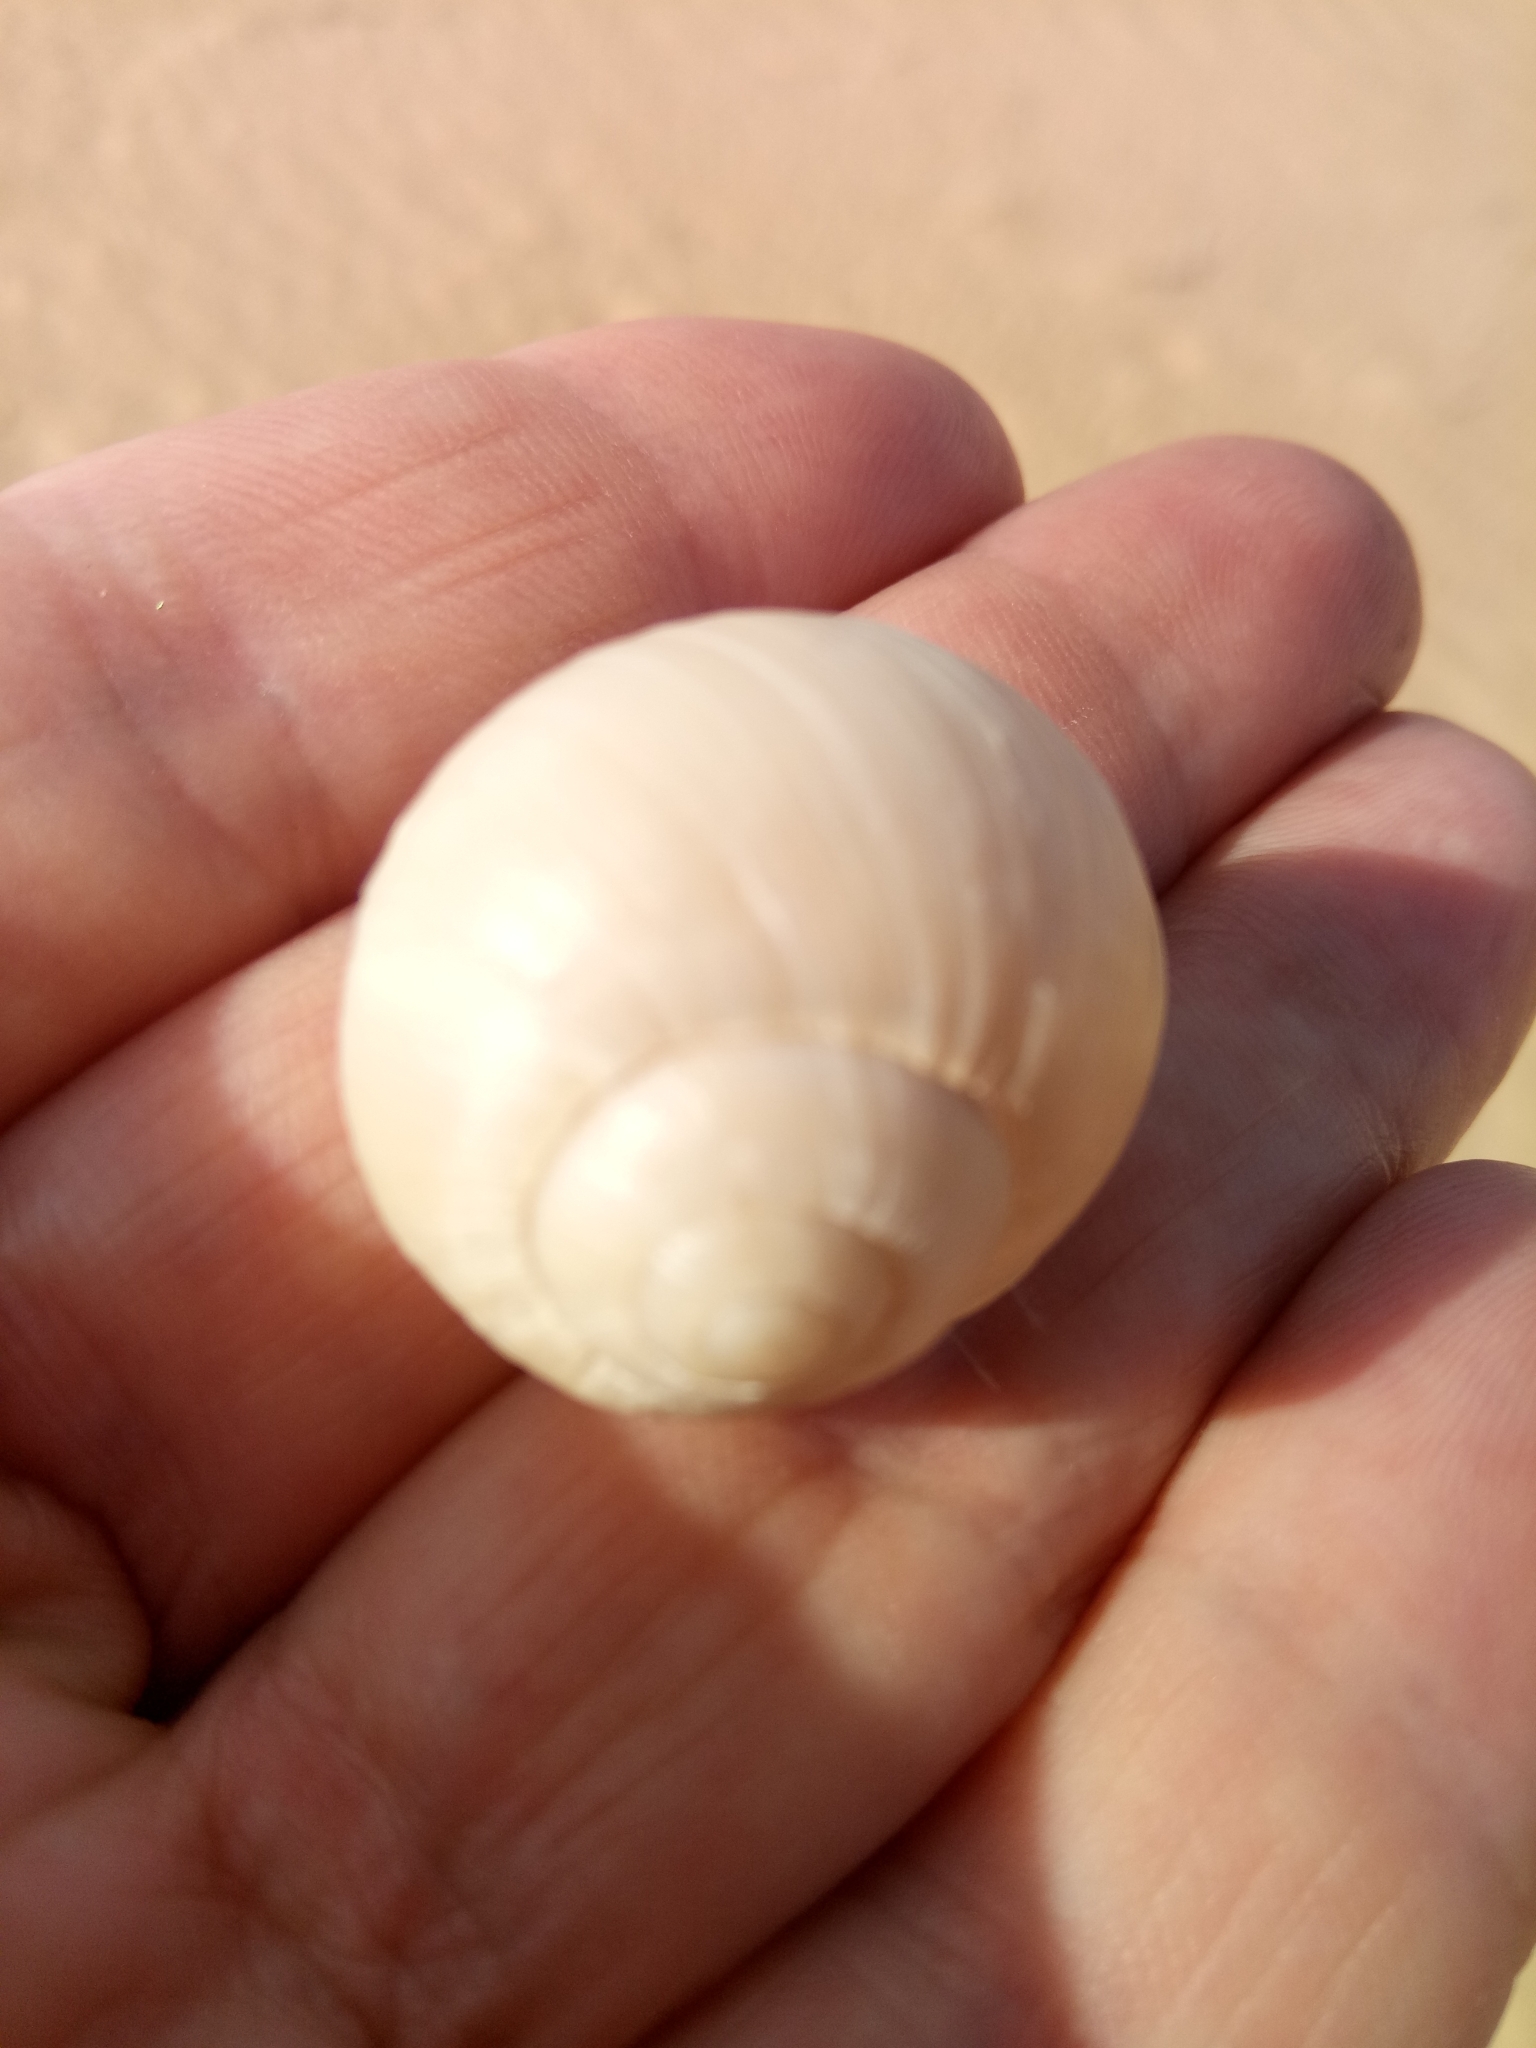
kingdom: Animalia
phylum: Mollusca
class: Gastropoda
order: Stylommatophora
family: Helicidae
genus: Helix
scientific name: Helix melanostoma
